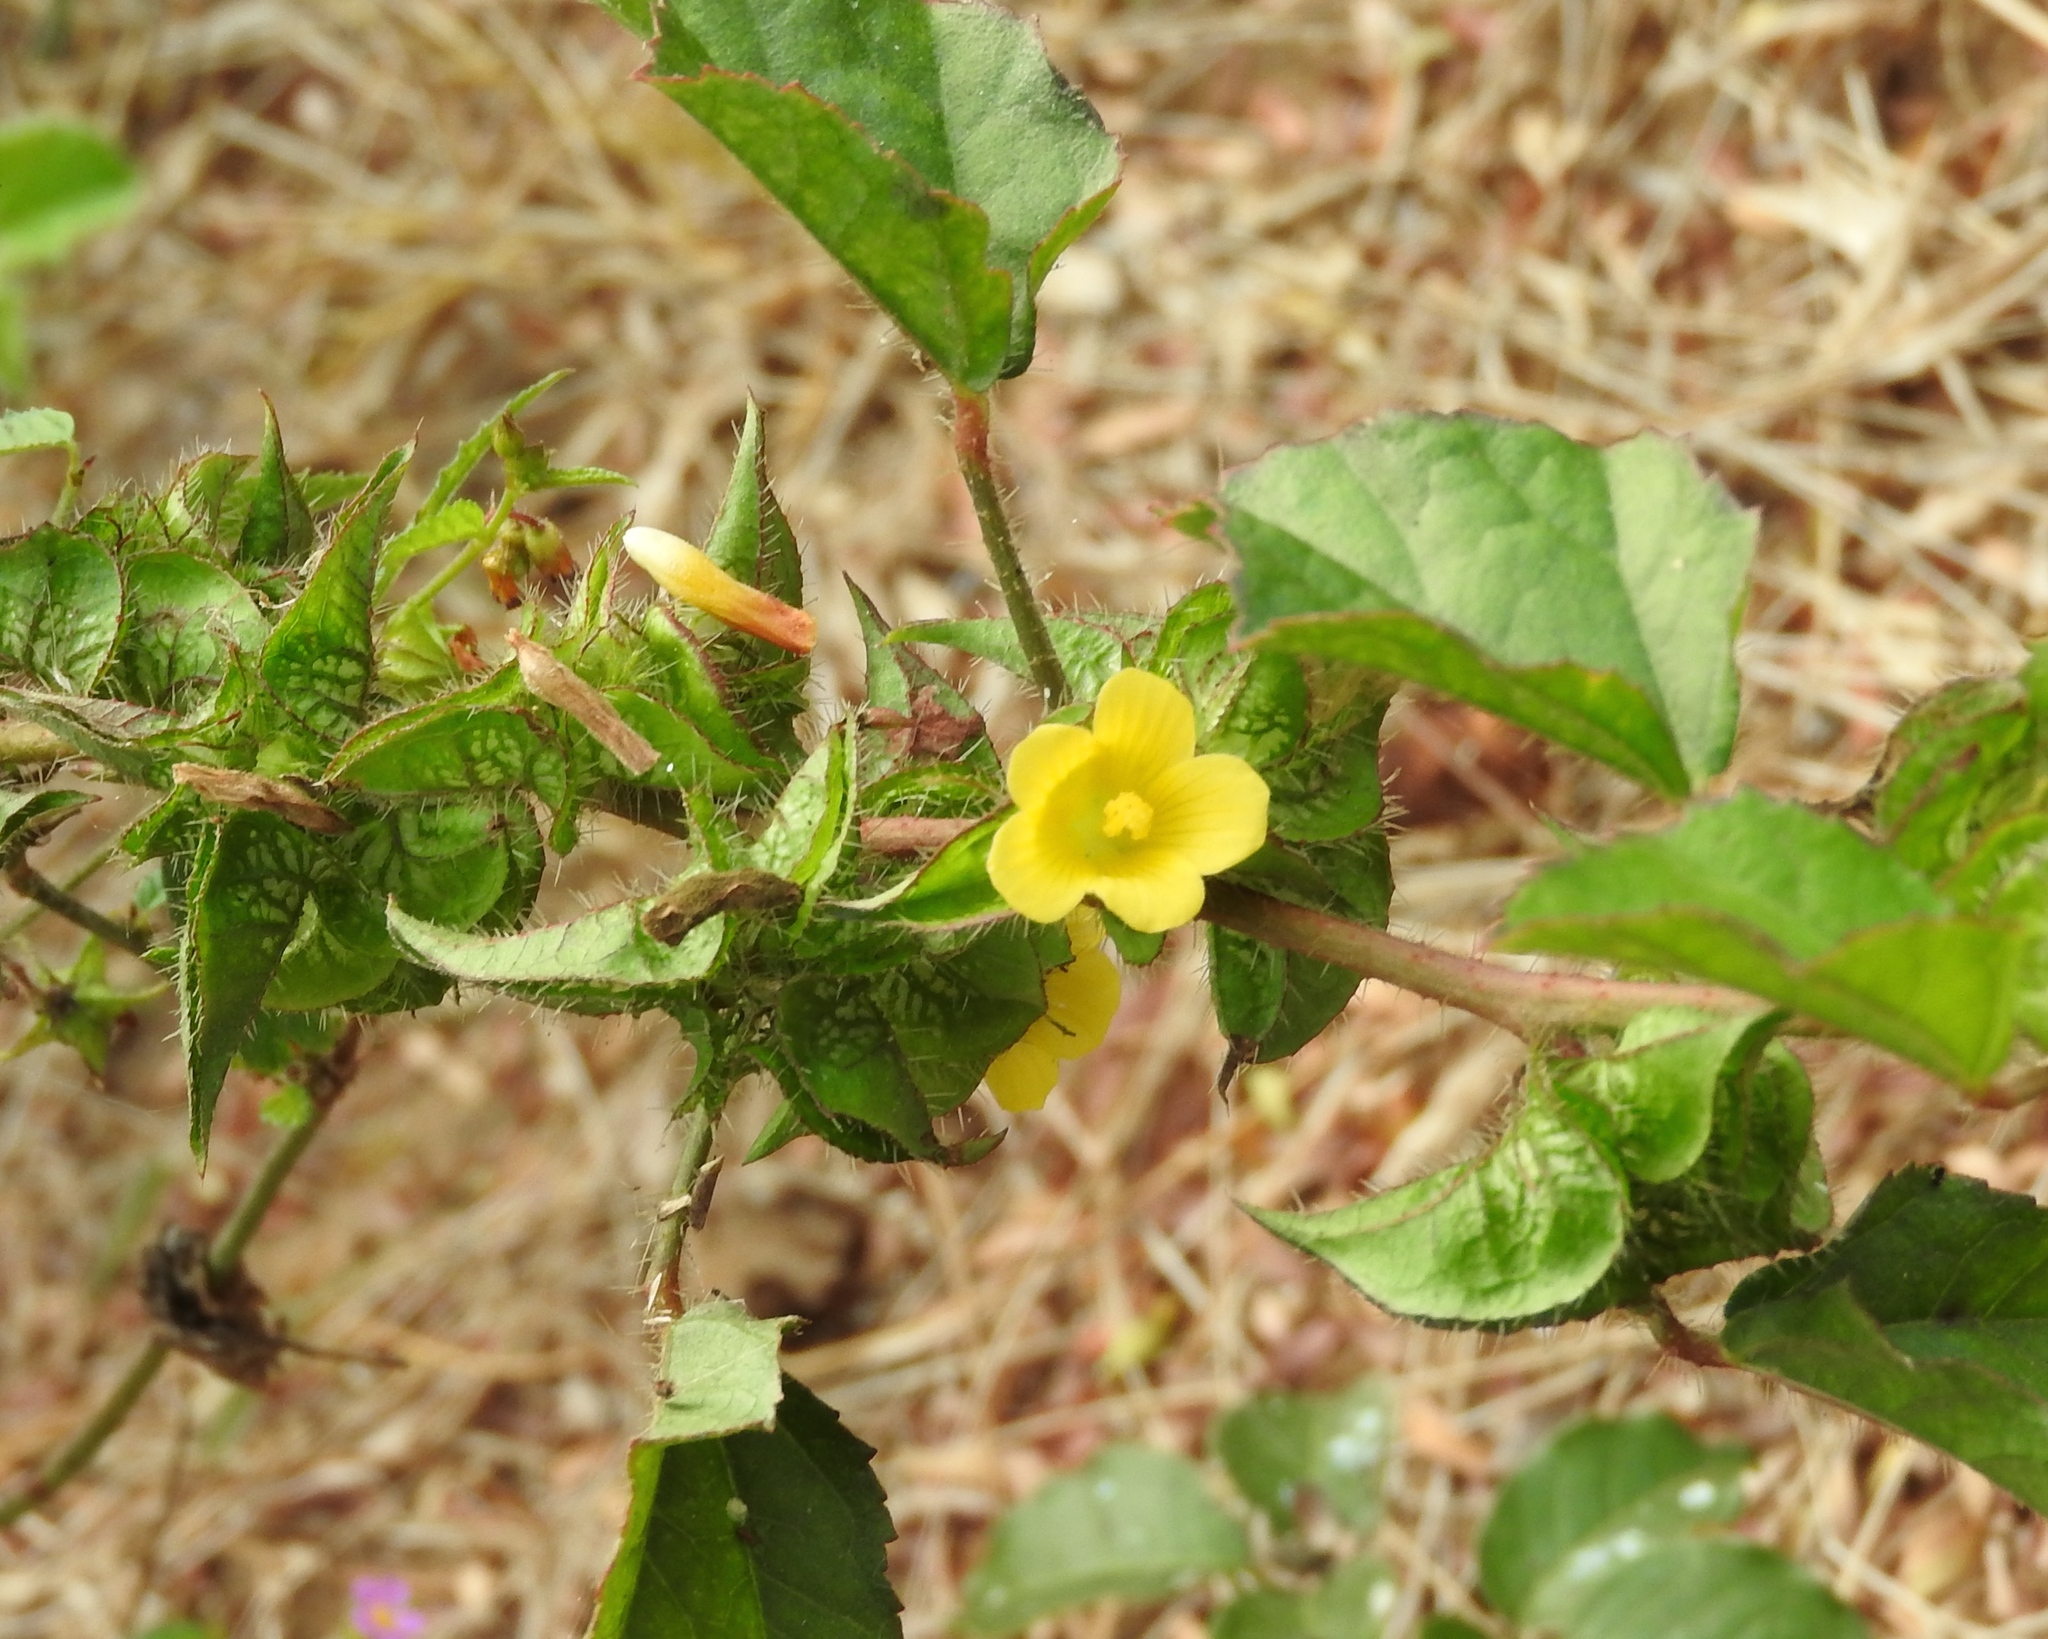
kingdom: Plantae
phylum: Tracheophyta
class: Magnoliopsida
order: Malvales
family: Malvaceae
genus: Malachra
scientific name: Malachra alceifolia
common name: Yellow leafbract
